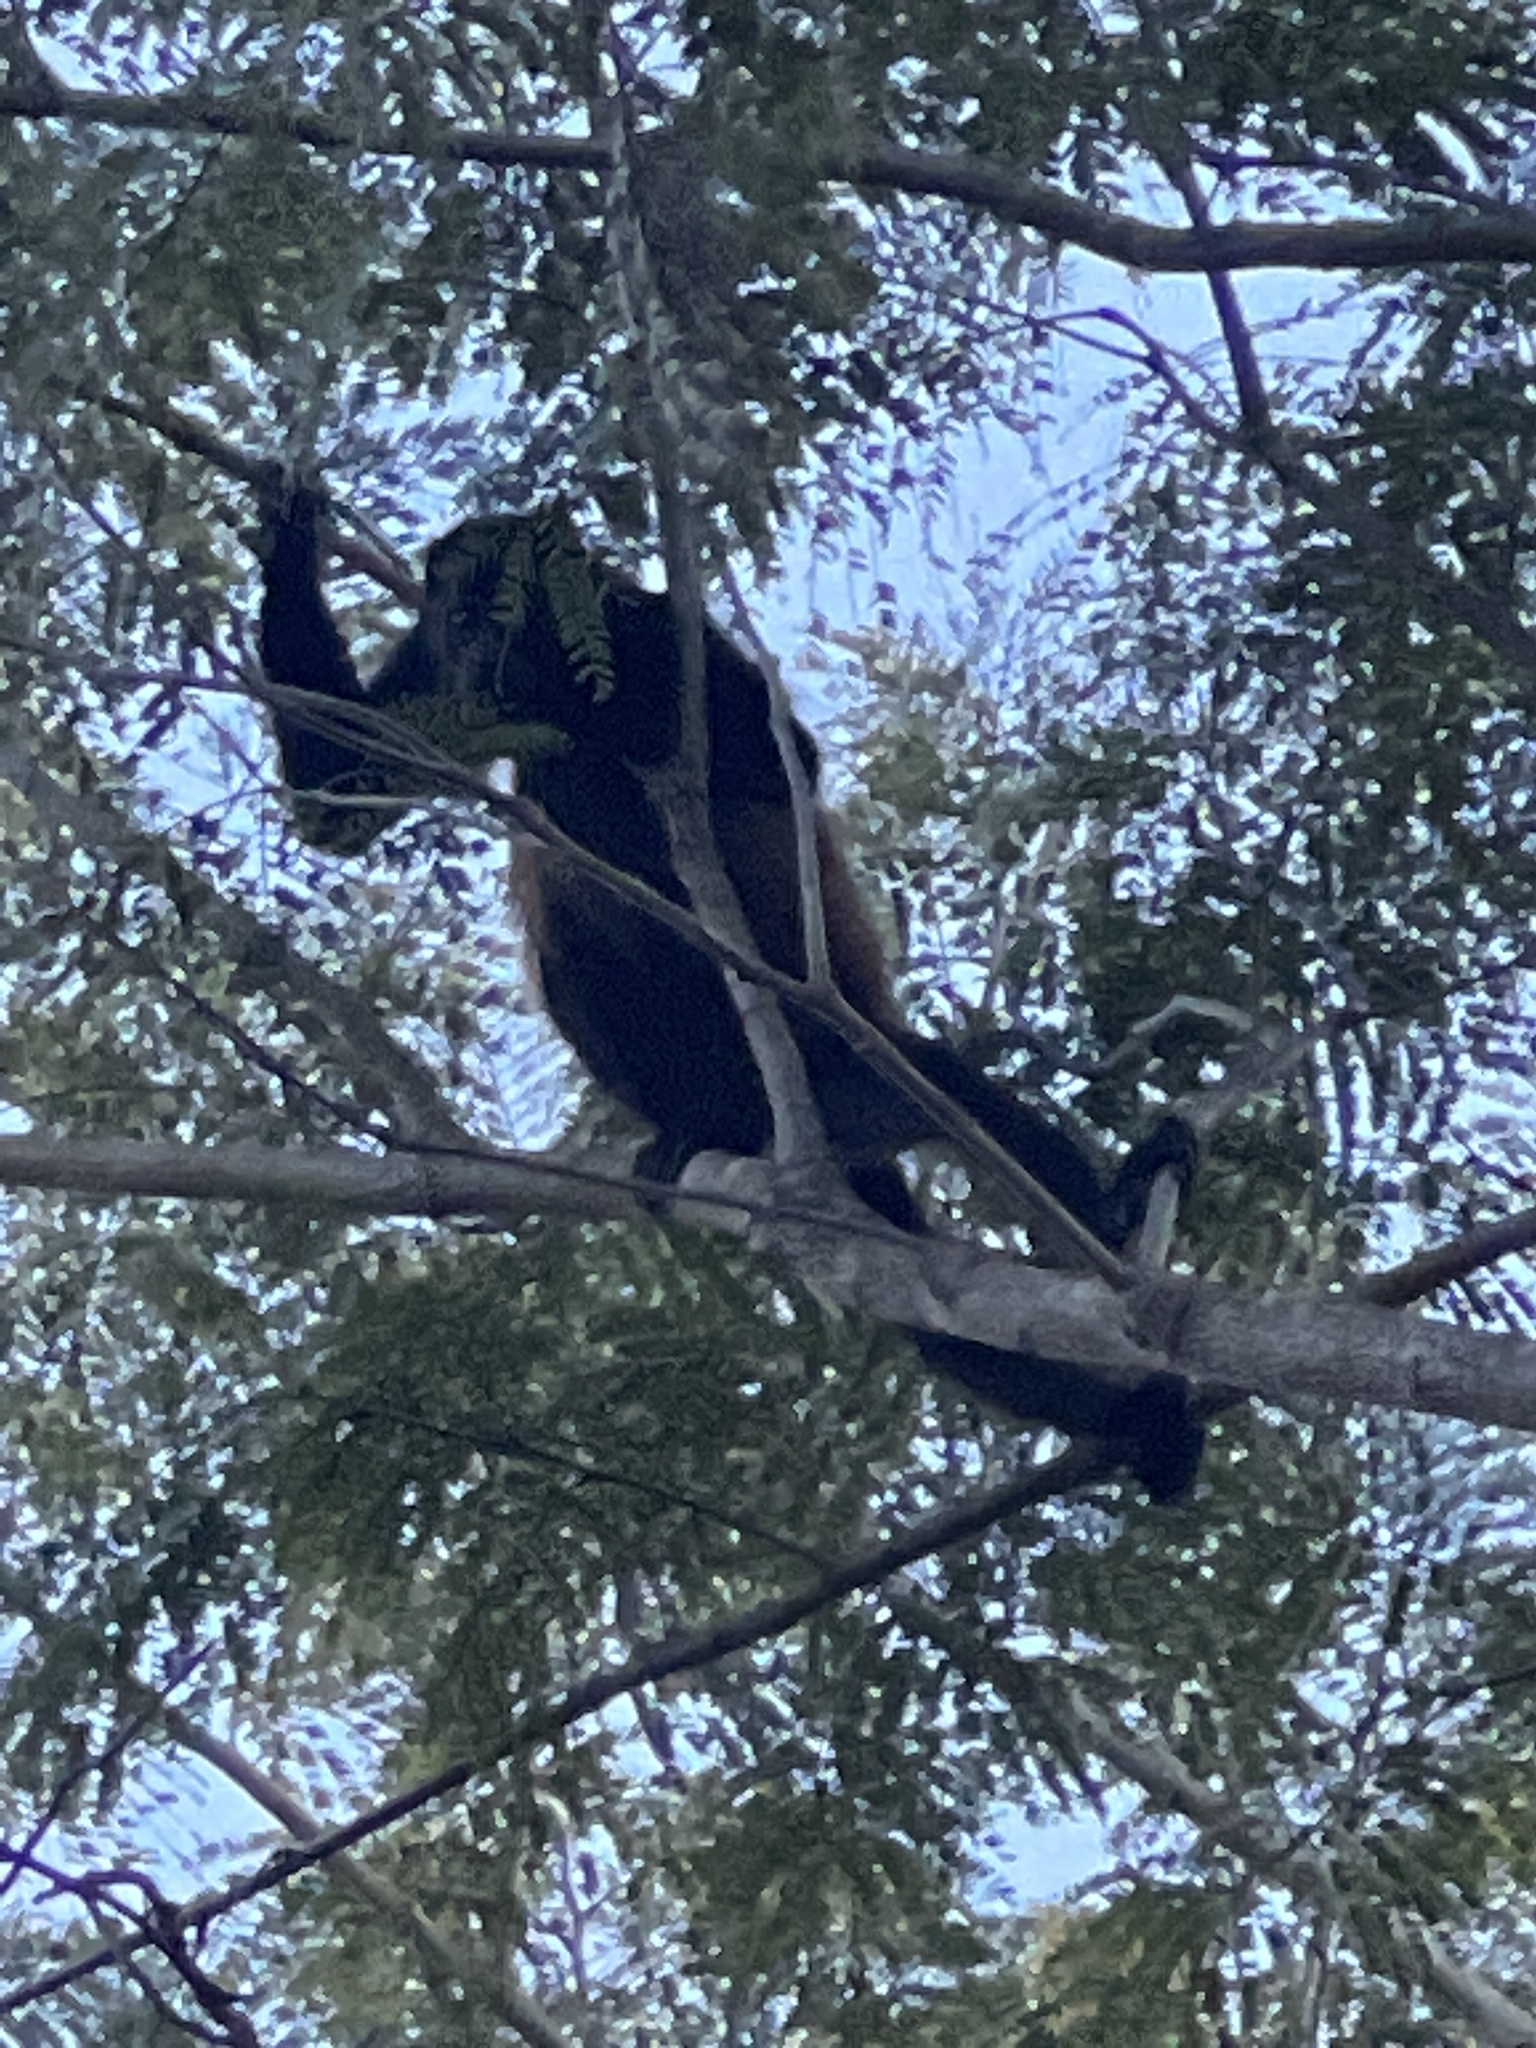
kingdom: Animalia
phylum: Chordata
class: Mammalia
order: Primates
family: Atelidae
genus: Alouatta
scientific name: Alouatta palliata
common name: Mantled howler
